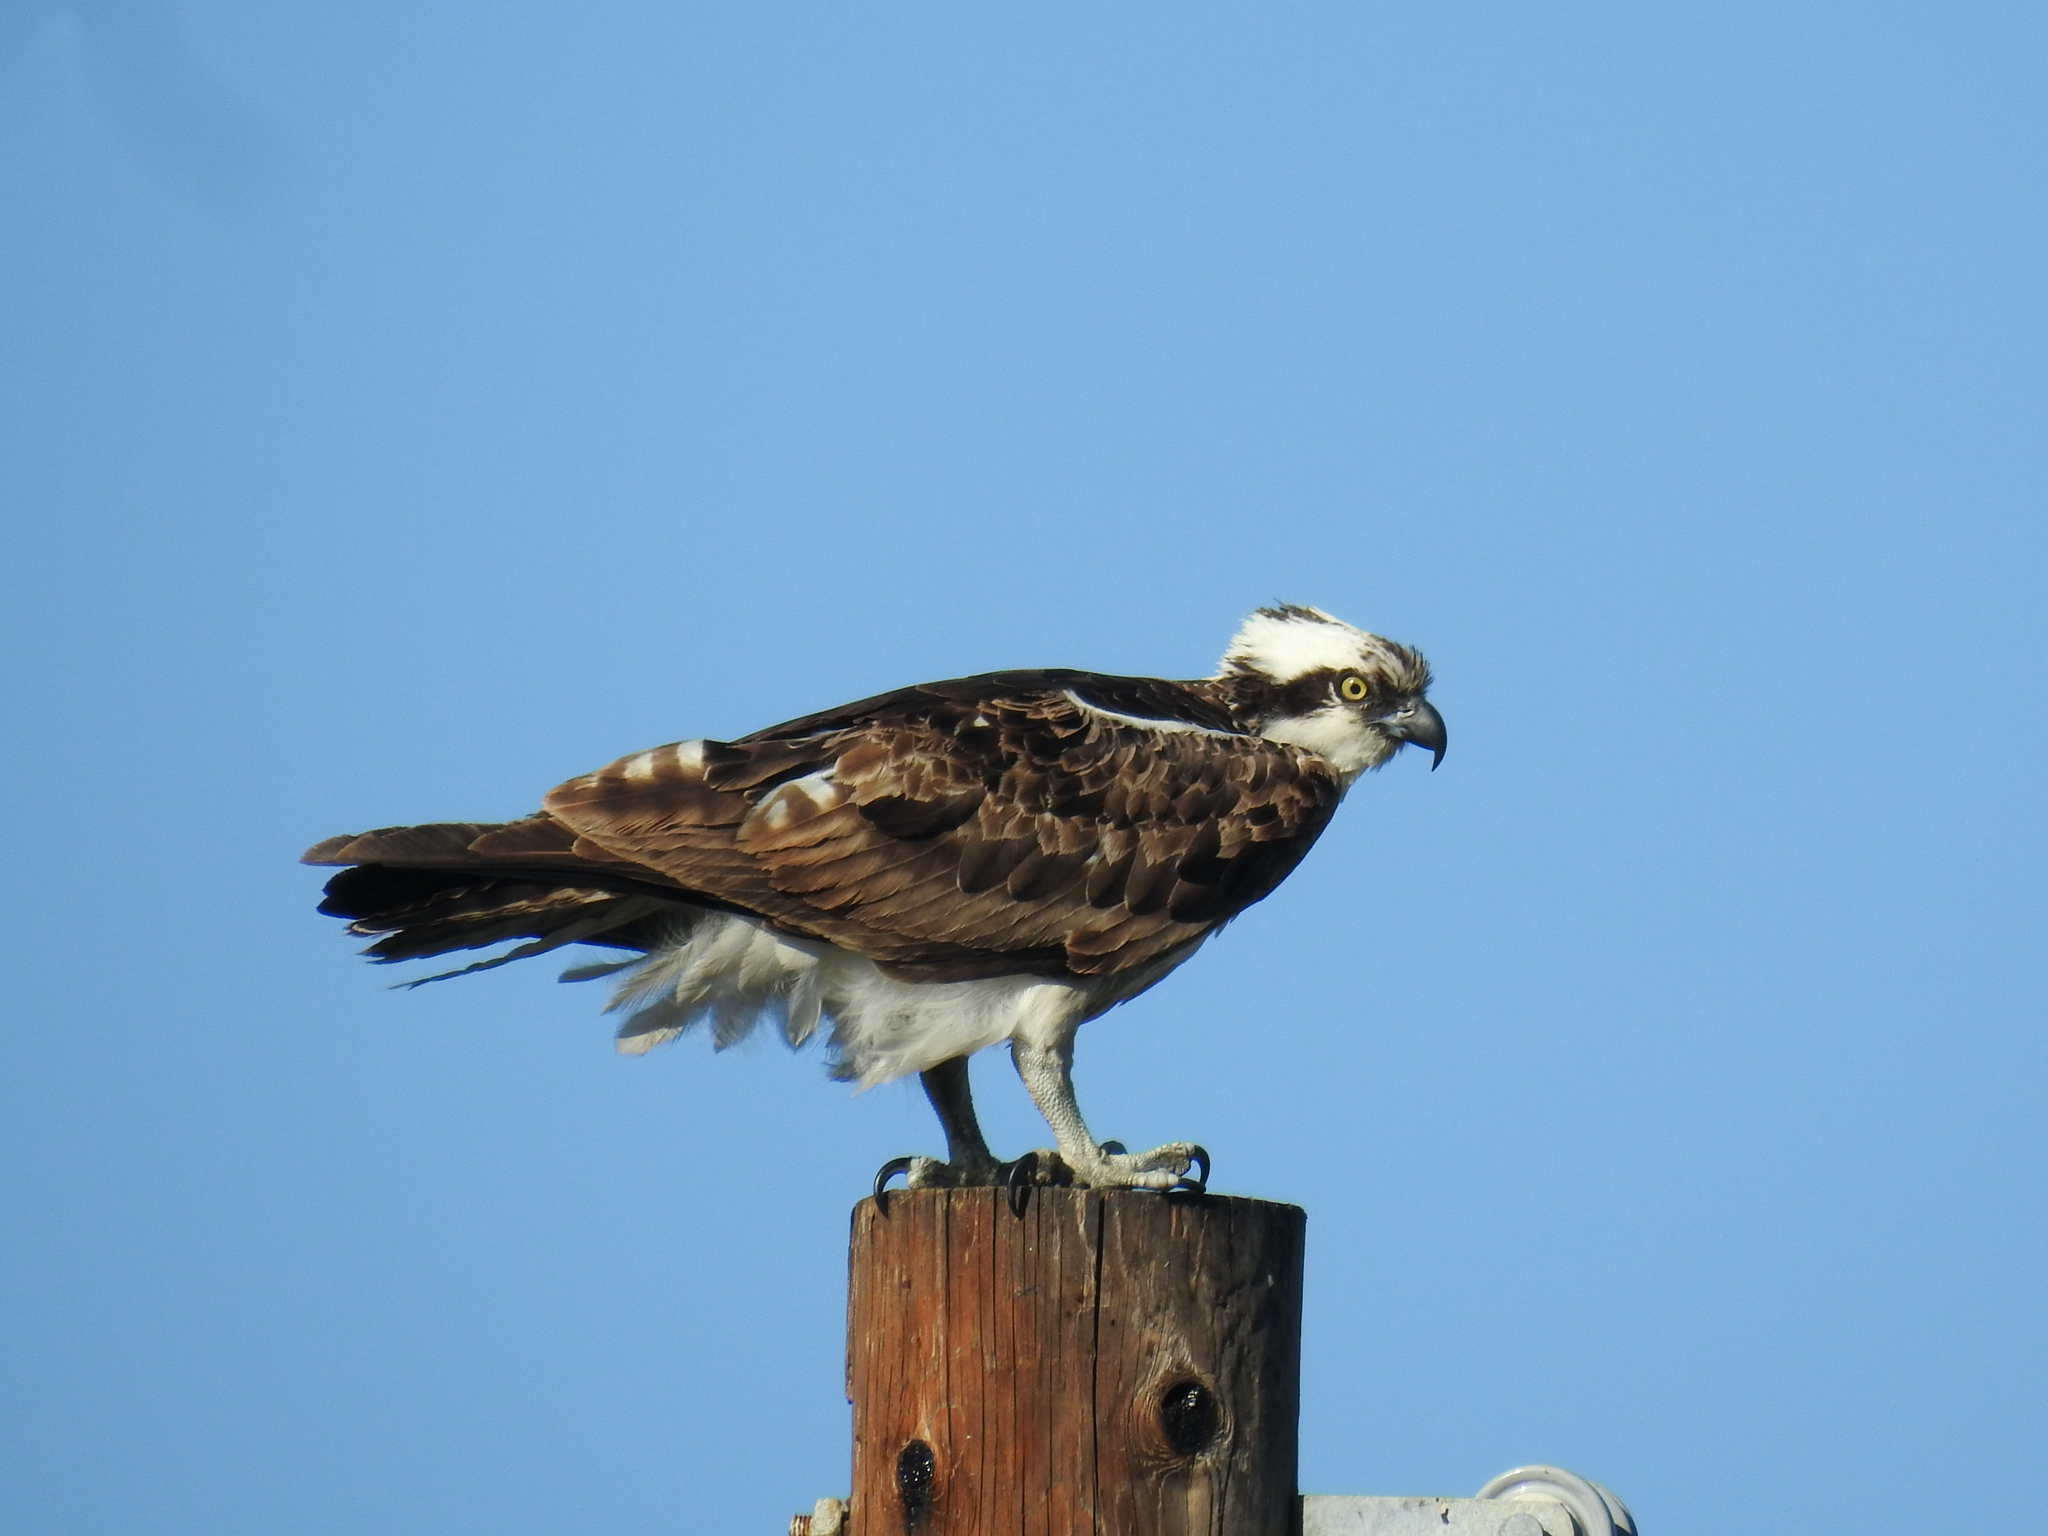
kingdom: Animalia
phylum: Chordata
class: Aves
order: Accipitriformes
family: Pandionidae
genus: Pandion
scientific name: Pandion haliaetus
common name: Osprey
